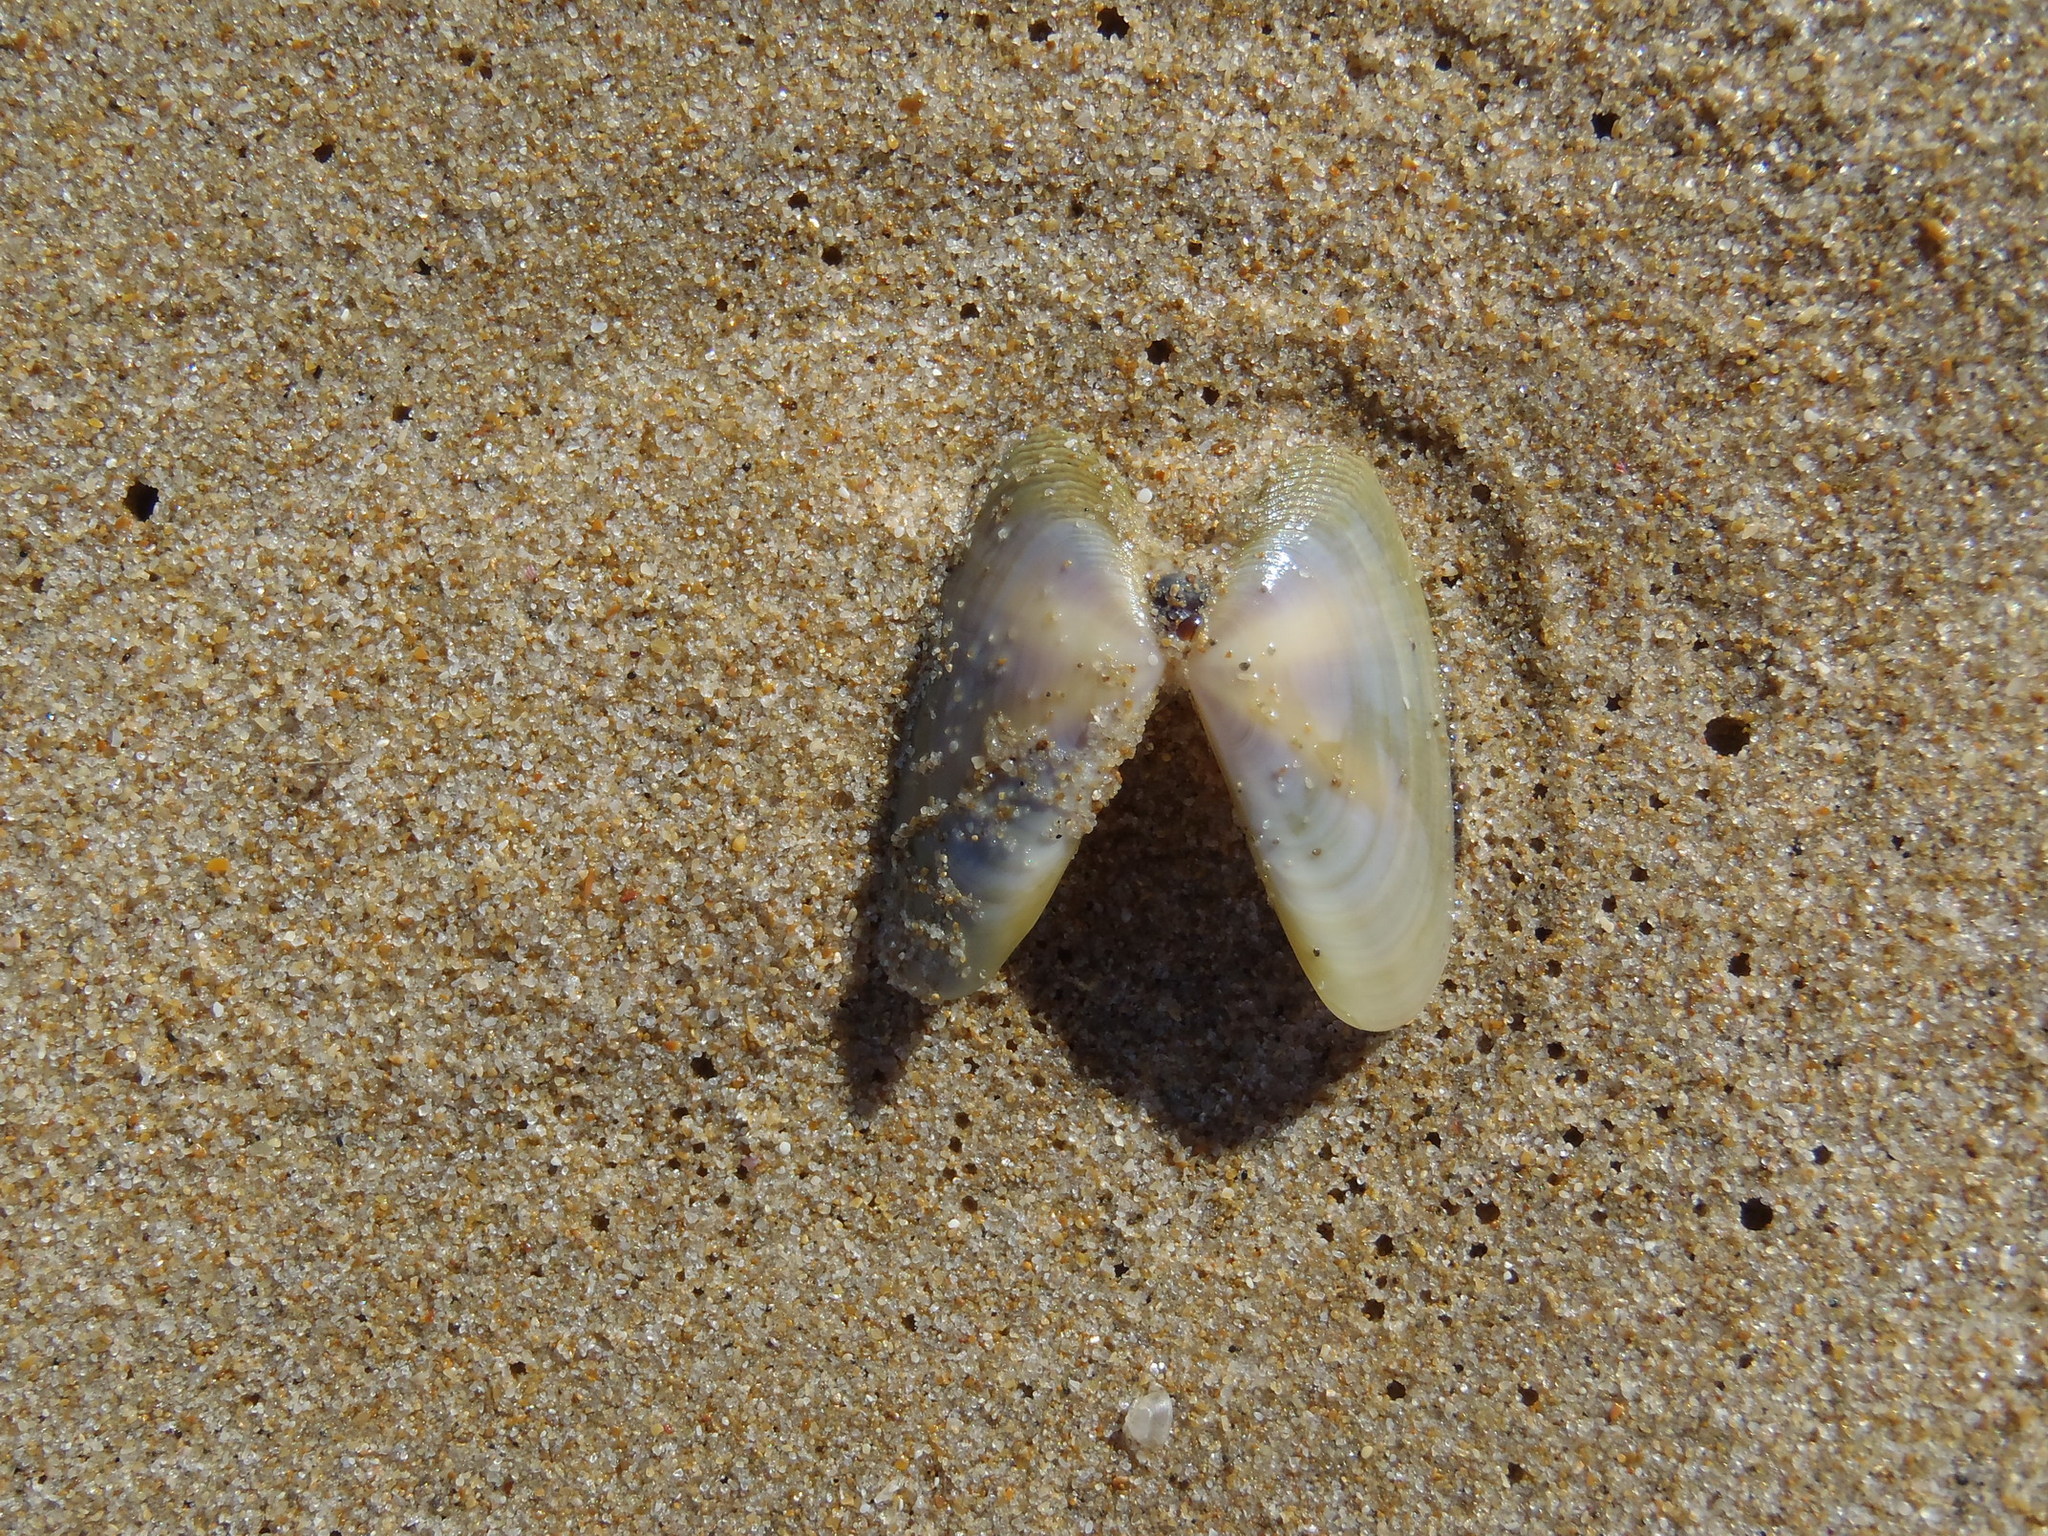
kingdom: Animalia
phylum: Mollusca
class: Bivalvia
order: Cardiida
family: Donacidae
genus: Donax
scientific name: Donax serra
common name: Giant south african wedge clam
